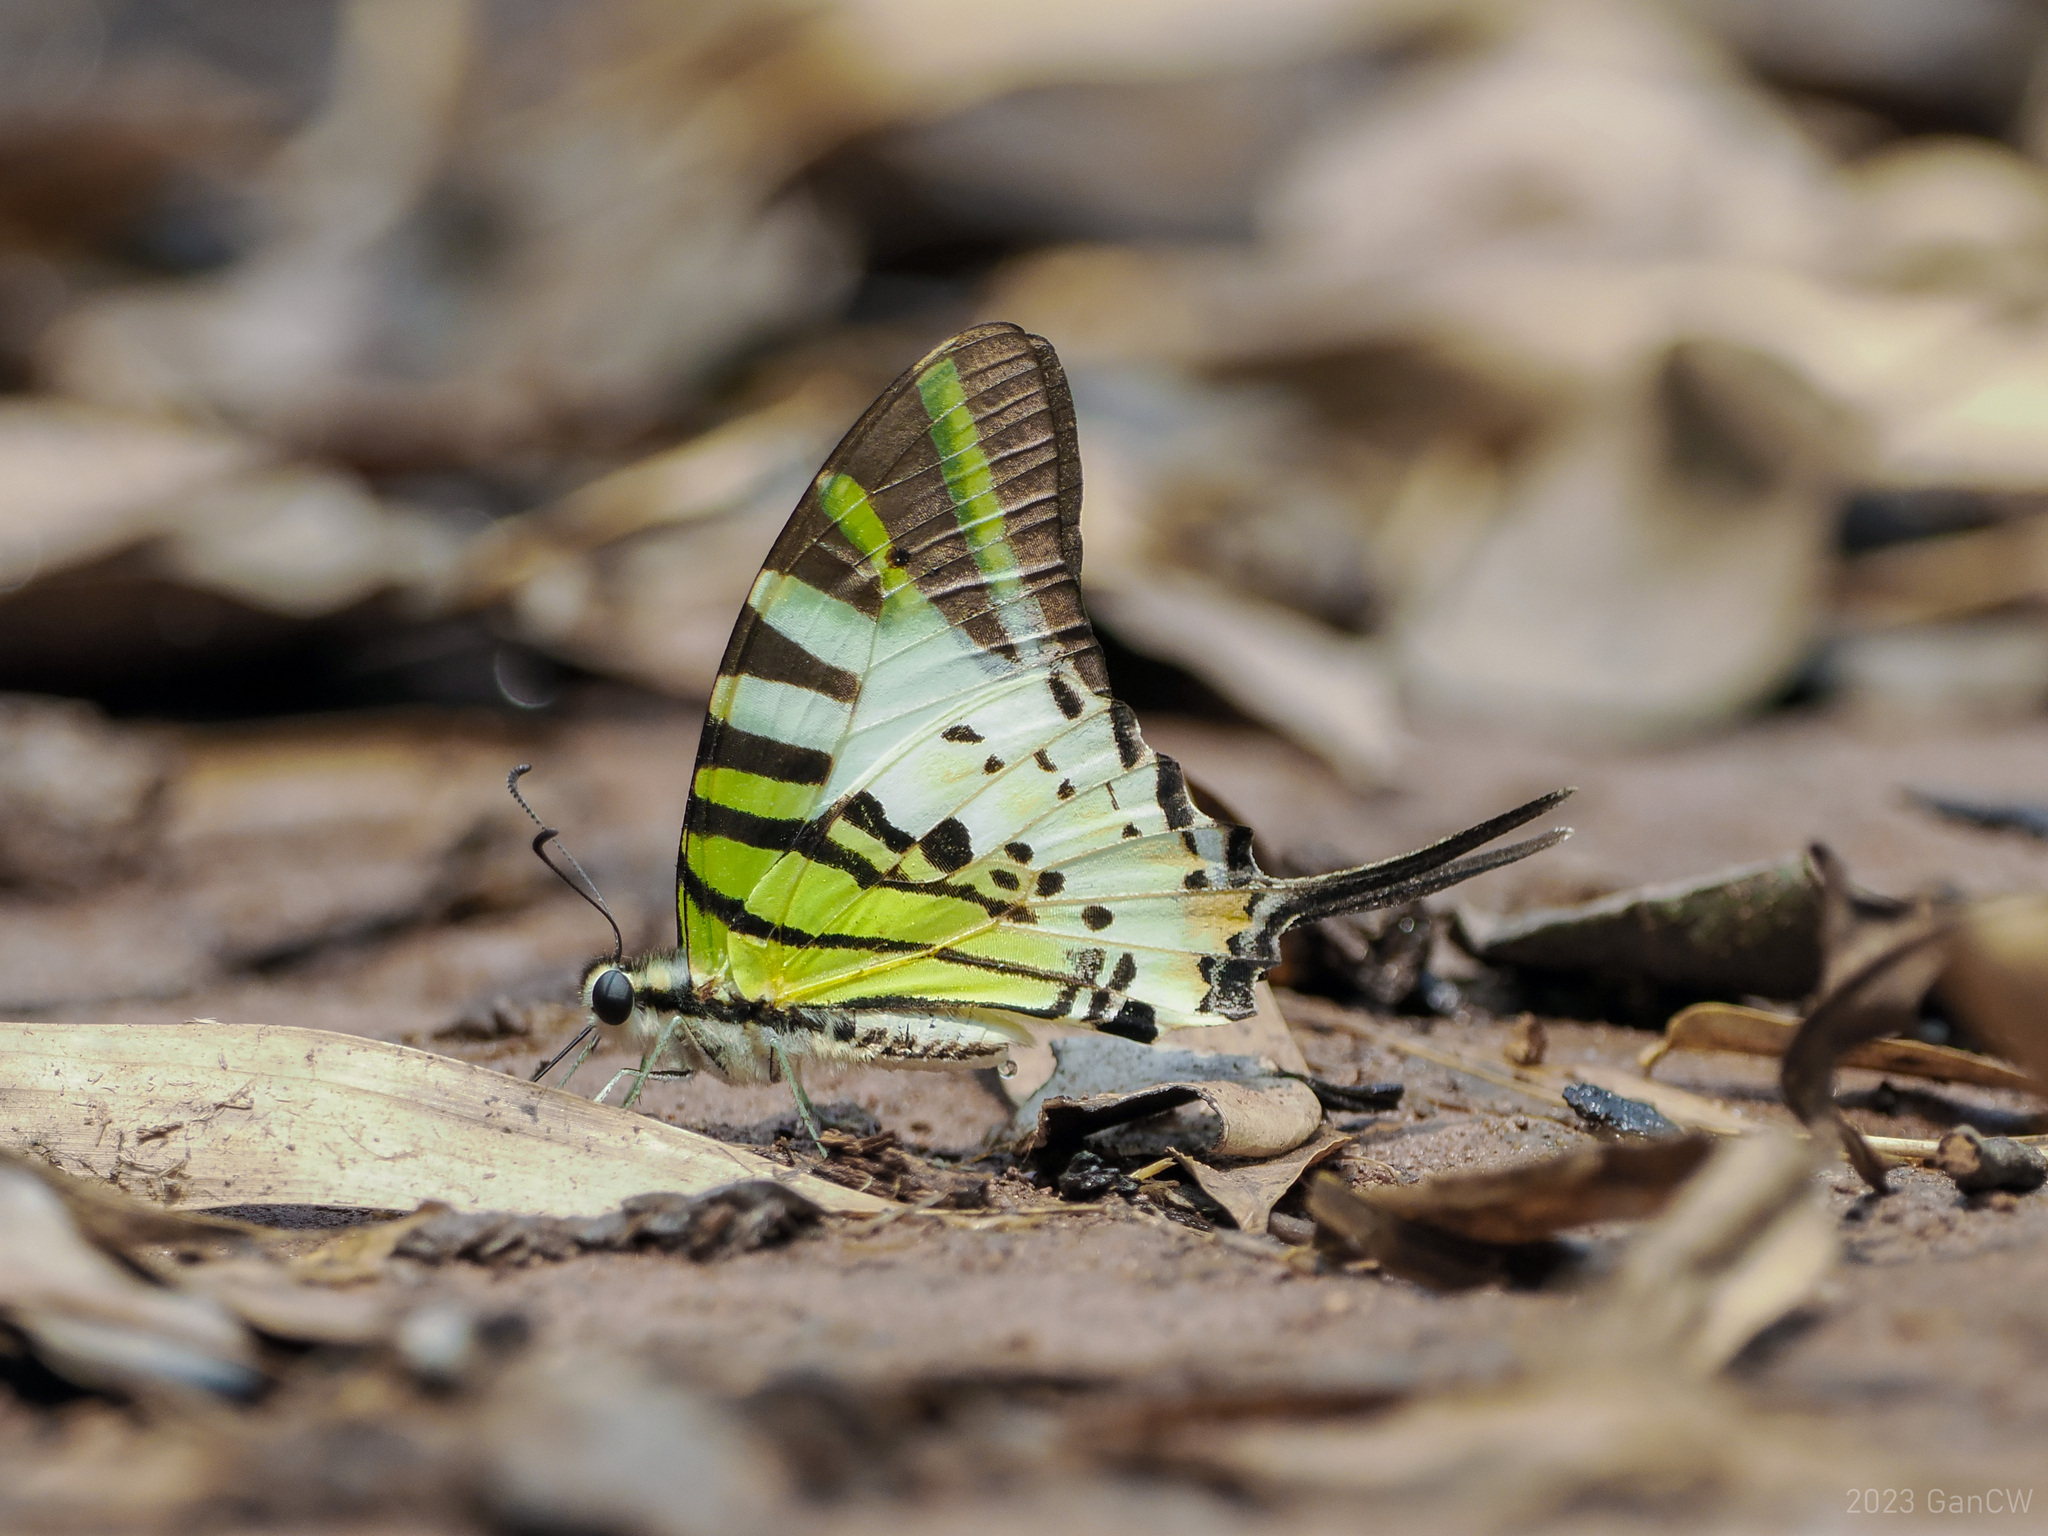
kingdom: Animalia
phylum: Arthropoda
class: Insecta
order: Lepidoptera
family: Papilionidae
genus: Graphium
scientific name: Graphium antiphates
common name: Fivebar swordtail
